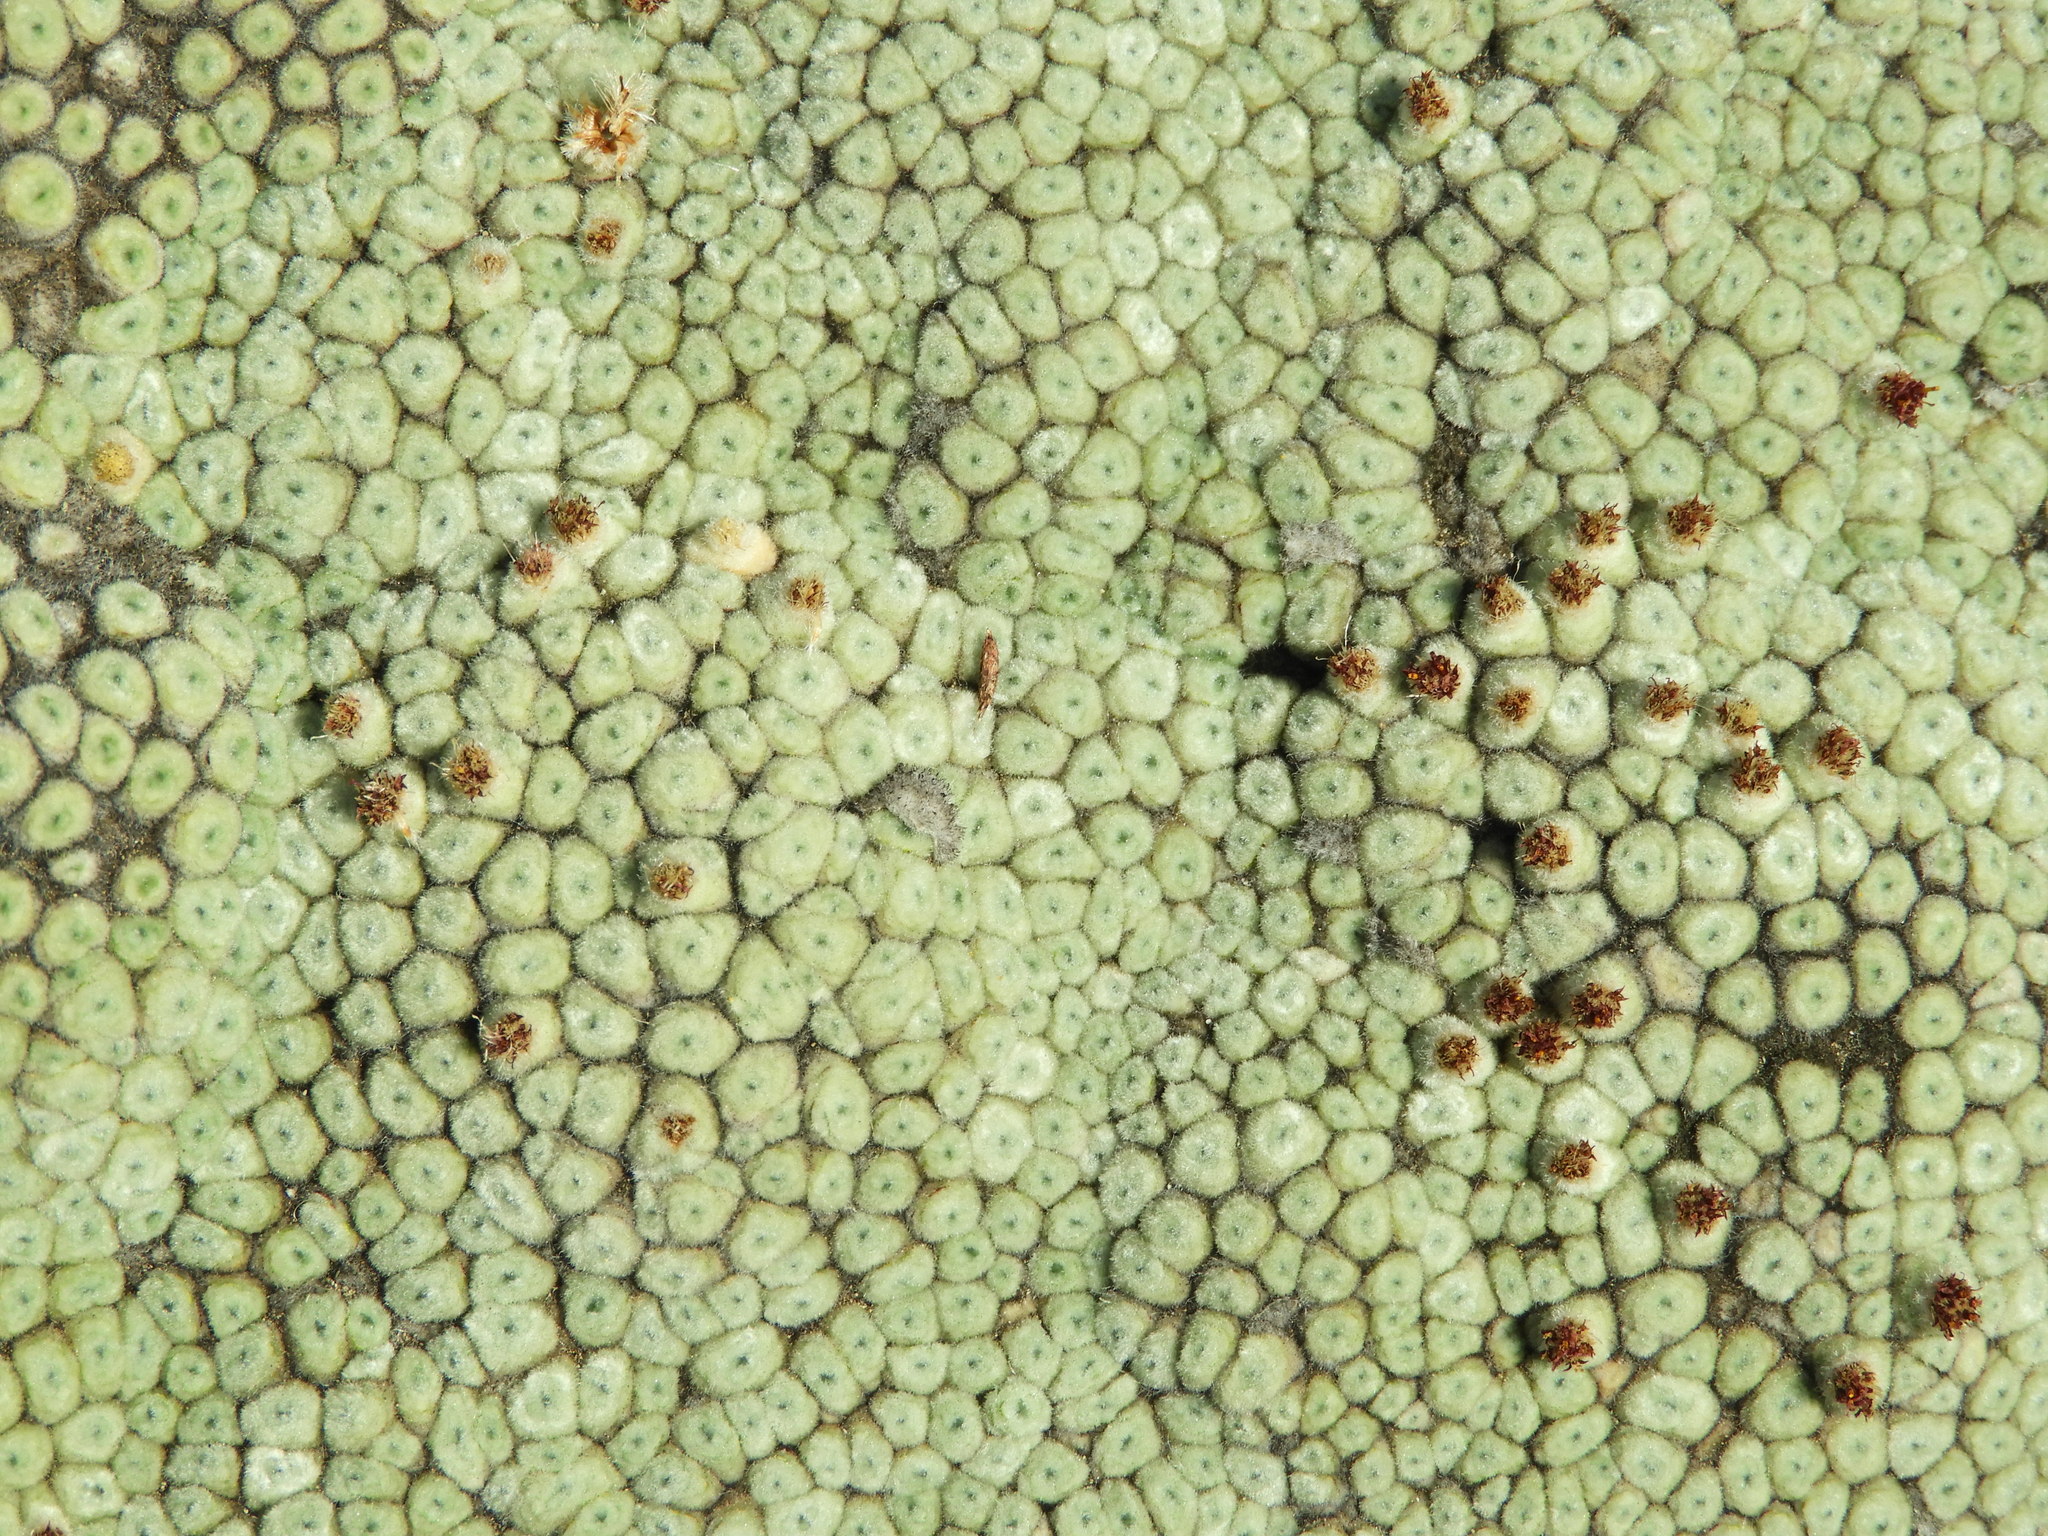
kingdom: Plantae
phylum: Tracheophyta
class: Magnoliopsida
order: Asterales
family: Asteraceae
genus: Raoulia
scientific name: Raoulia buchananii
